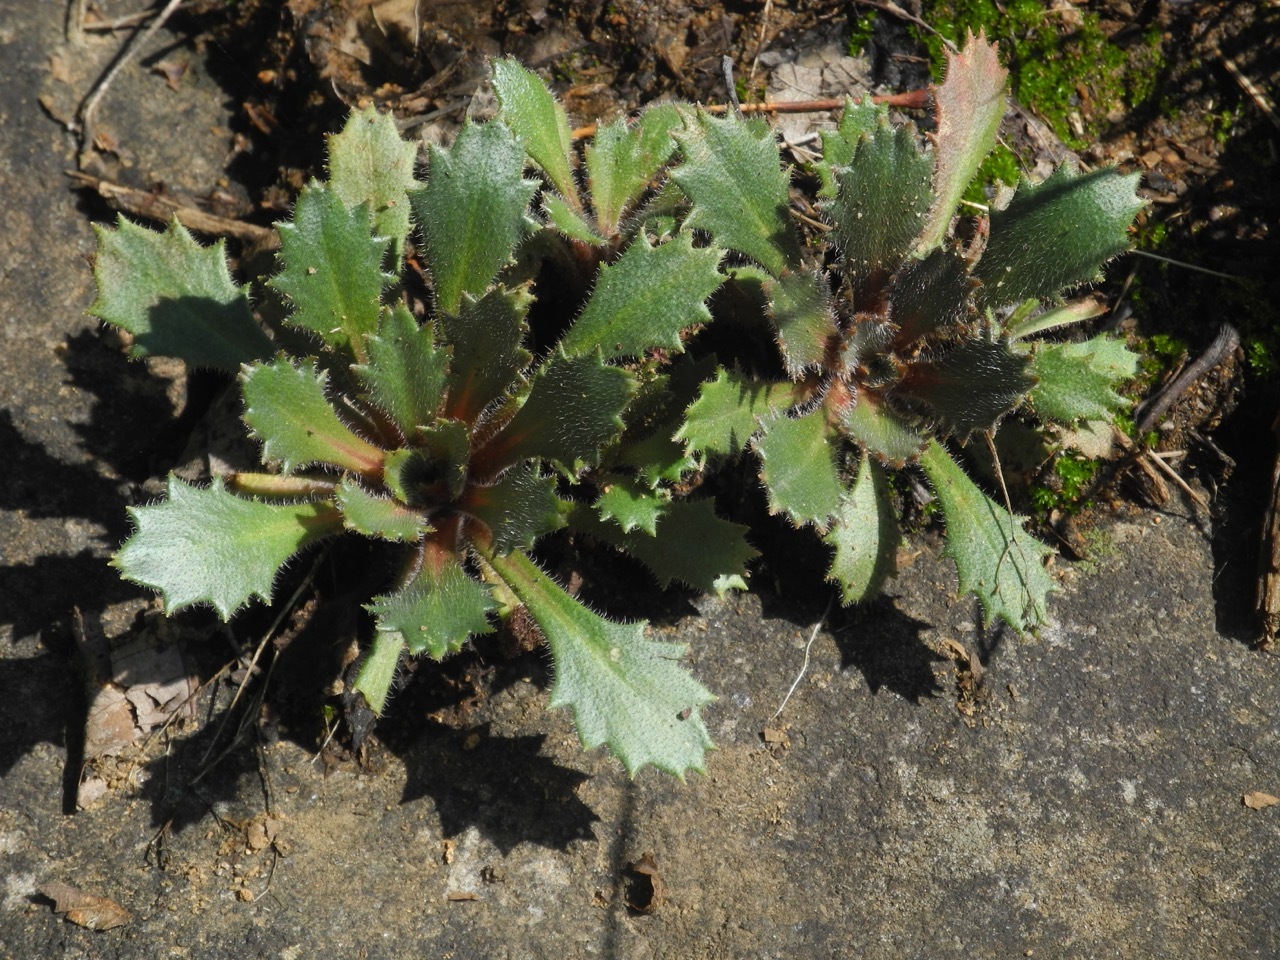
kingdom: Plantae
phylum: Tracheophyta
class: Magnoliopsida
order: Saxifragales
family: Saxifragaceae
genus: Micranthes
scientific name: Micranthes petiolaris
